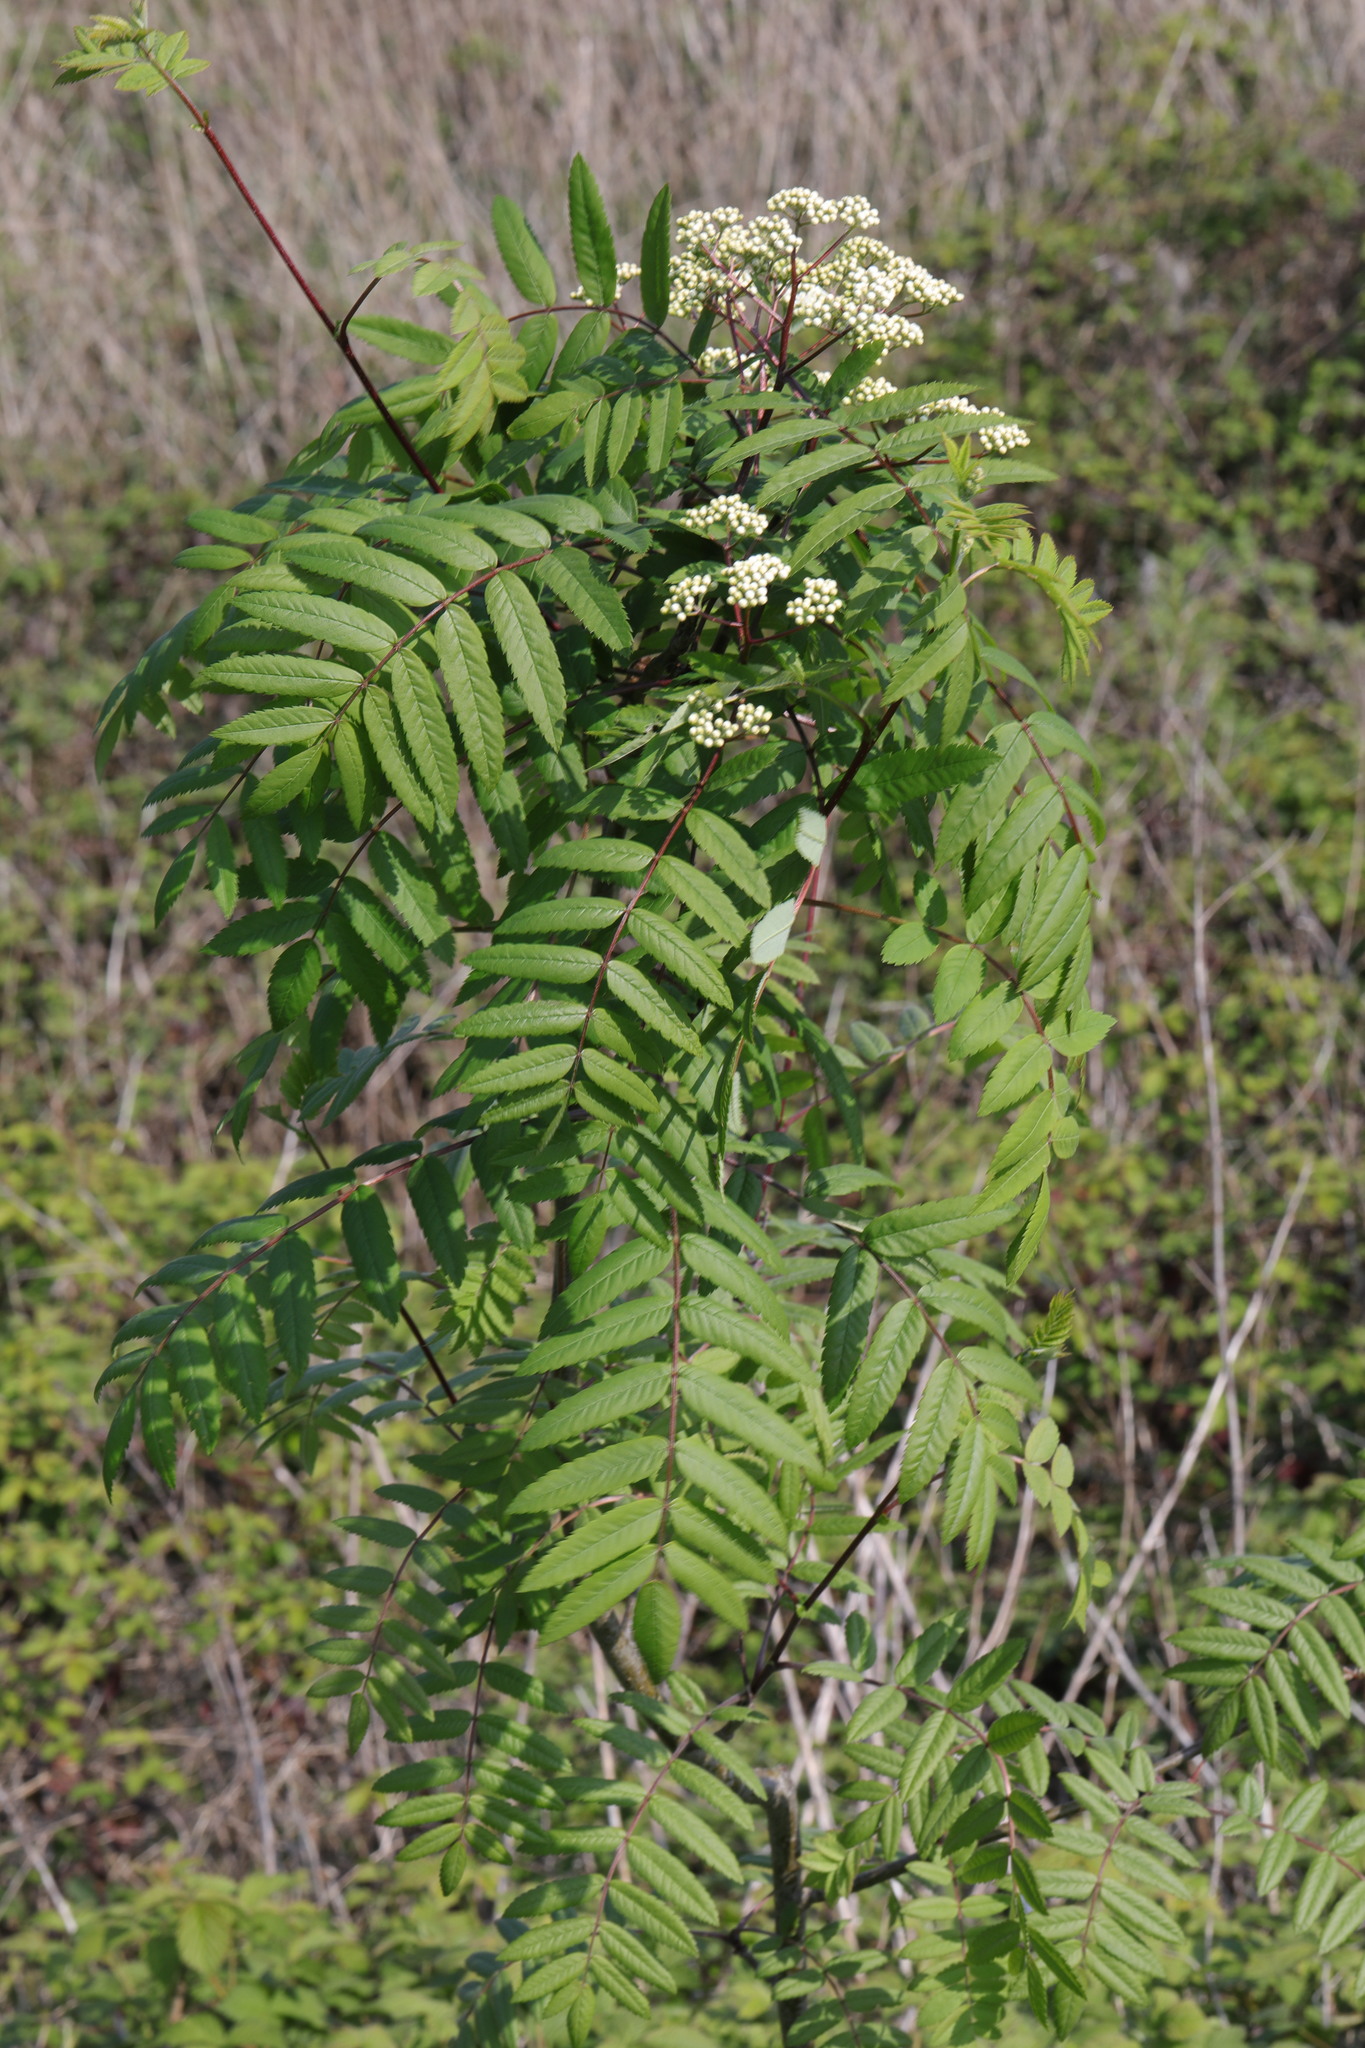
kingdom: Plantae
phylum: Tracheophyta
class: Magnoliopsida
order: Rosales
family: Rosaceae
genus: Sorbus
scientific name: Sorbus aucuparia
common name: Rowan
